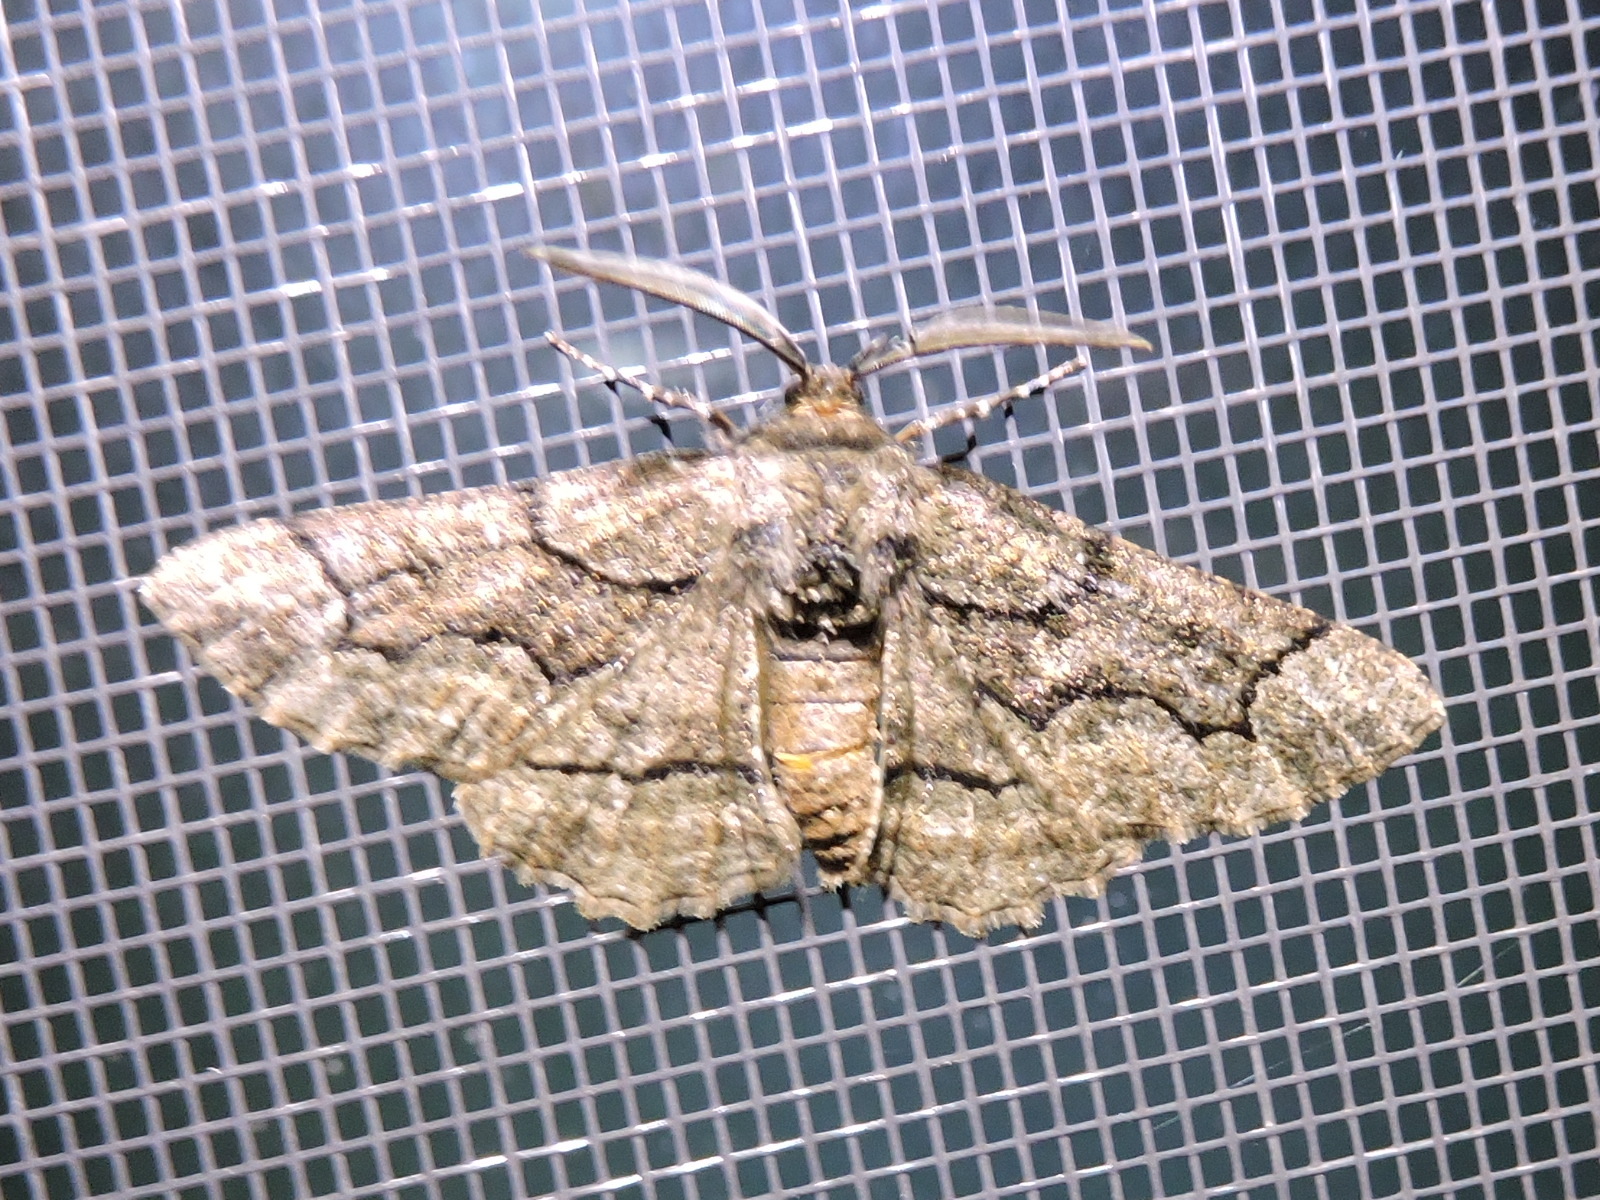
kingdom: Animalia
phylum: Arthropoda
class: Insecta
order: Lepidoptera
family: Geometridae
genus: Phaeoura
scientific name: Phaeoura quernaria
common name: Oak beauty
